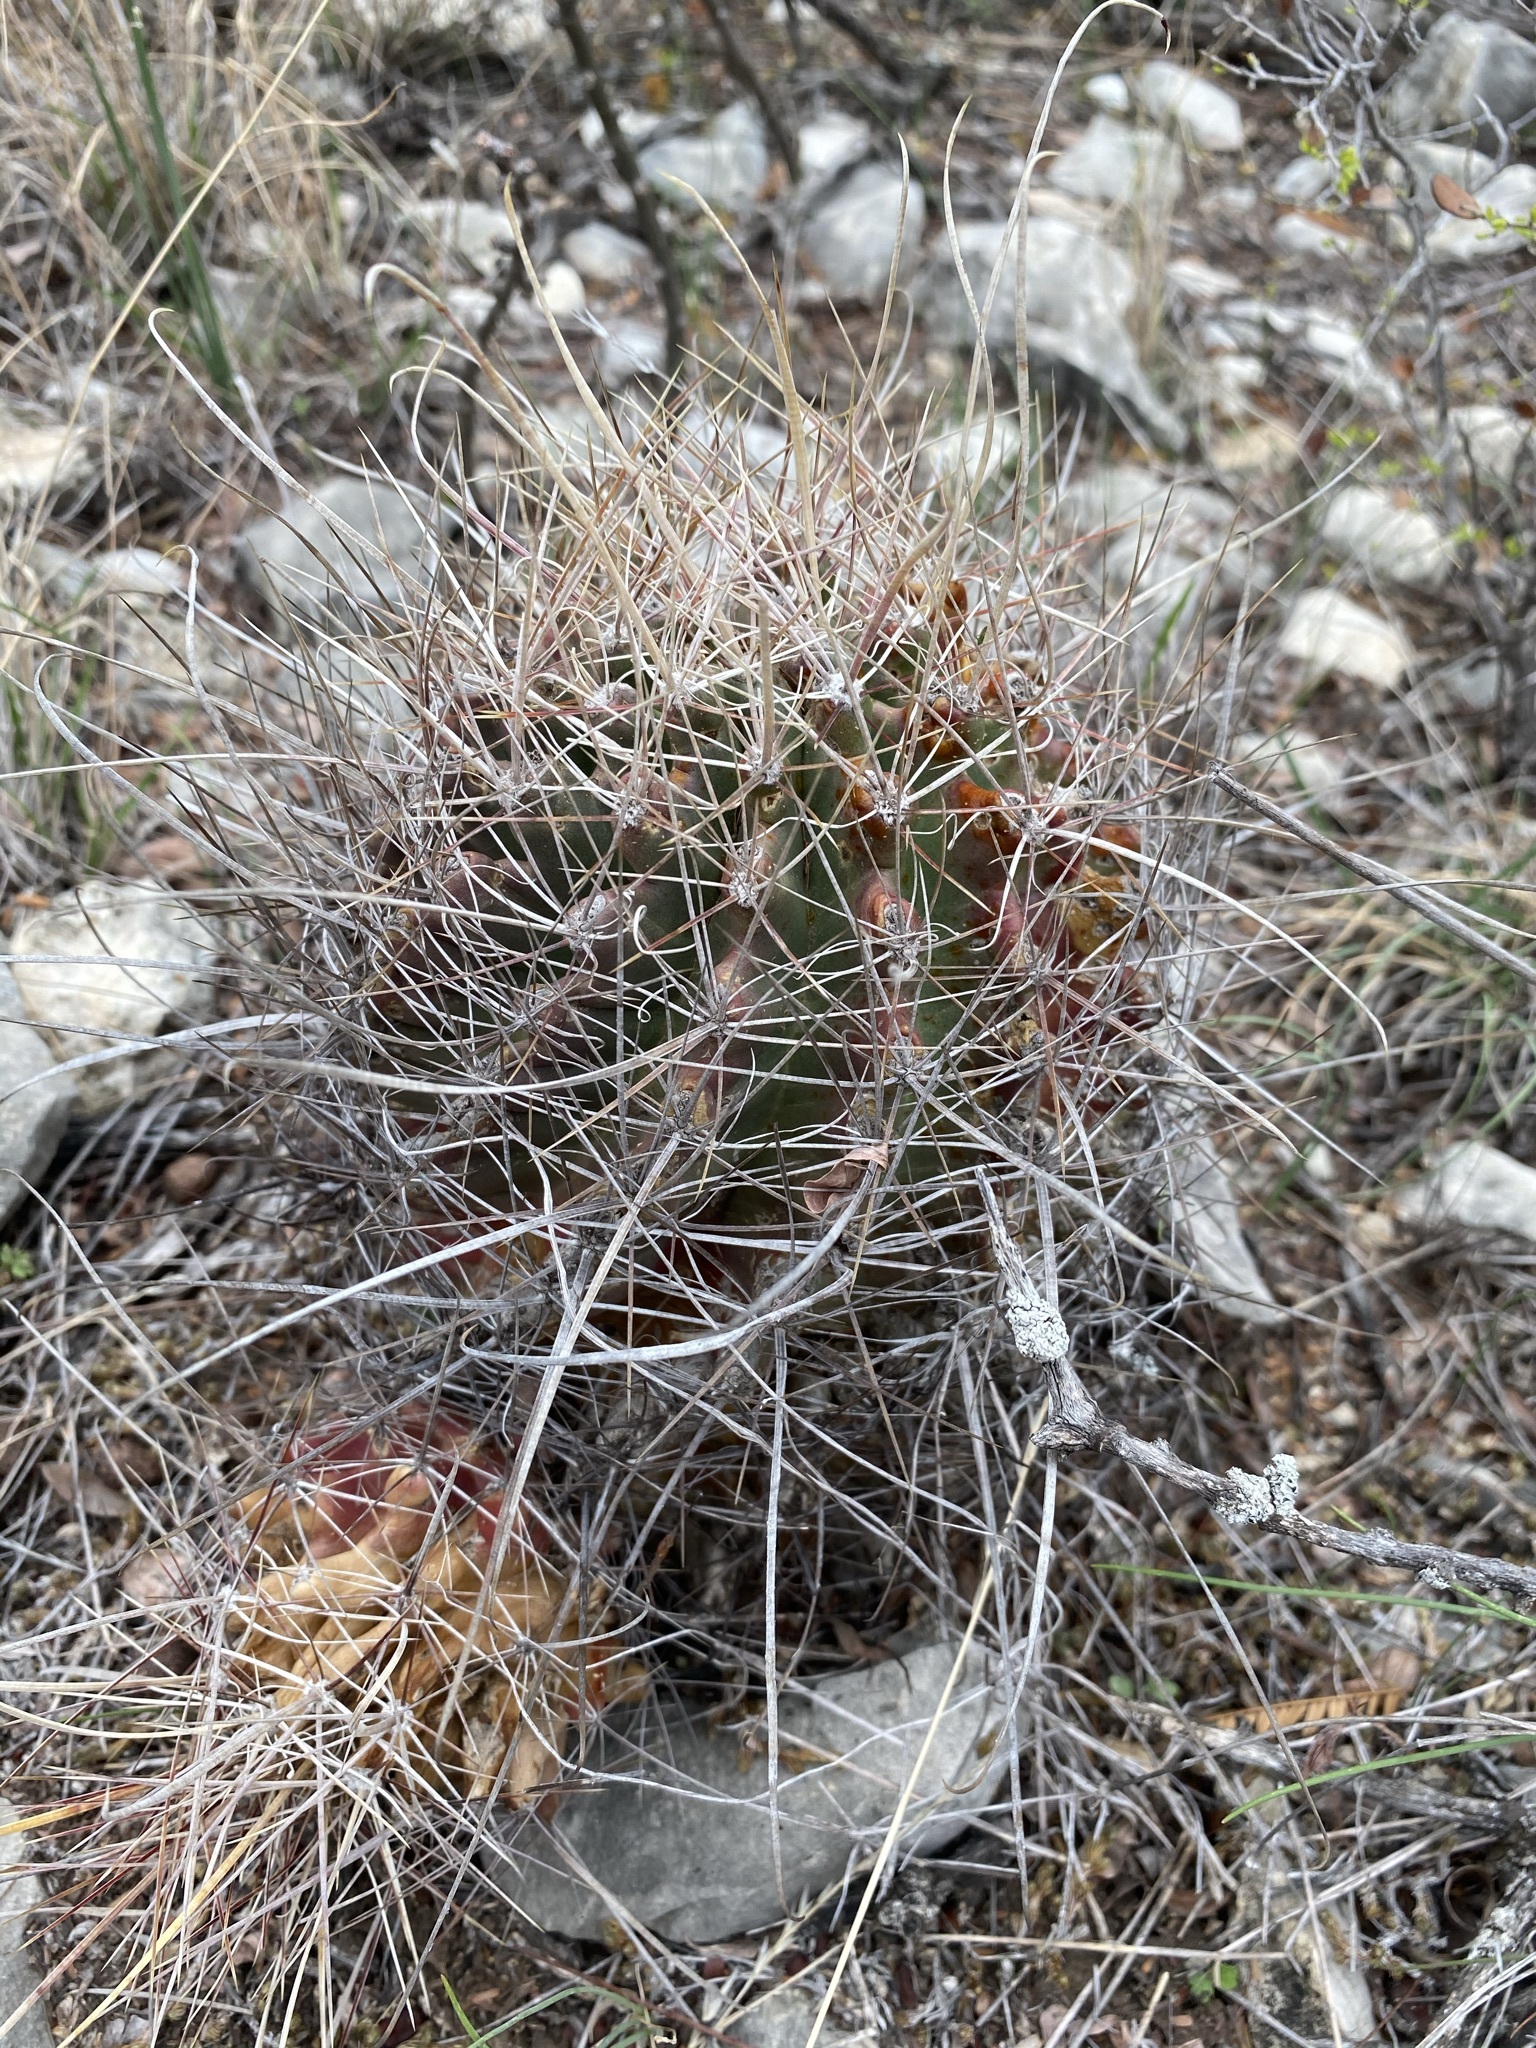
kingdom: Plantae
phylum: Tracheophyta
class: Magnoliopsida
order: Caryophyllales
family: Cactaceae
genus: Bisnaga
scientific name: Bisnaga hamatacantha
